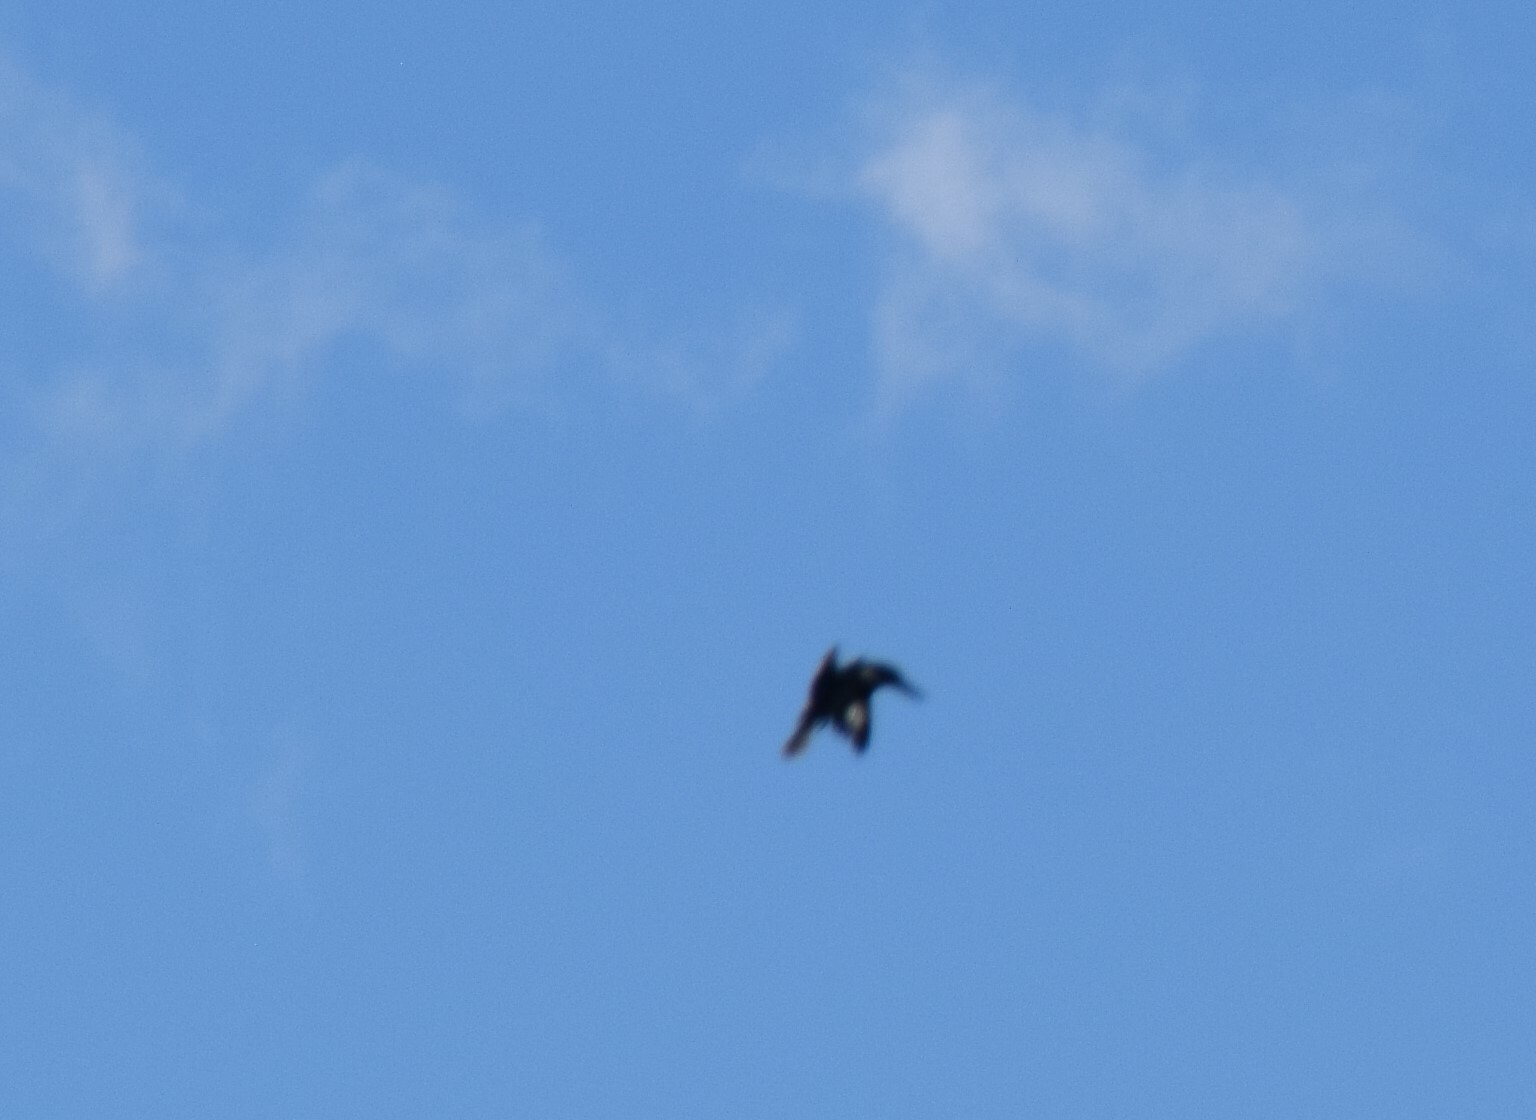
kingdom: Animalia
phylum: Chordata
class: Aves
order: Coraciiformes
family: Alcedinidae
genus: Megaceryle
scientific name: Megaceryle alcyon
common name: Belted kingfisher
